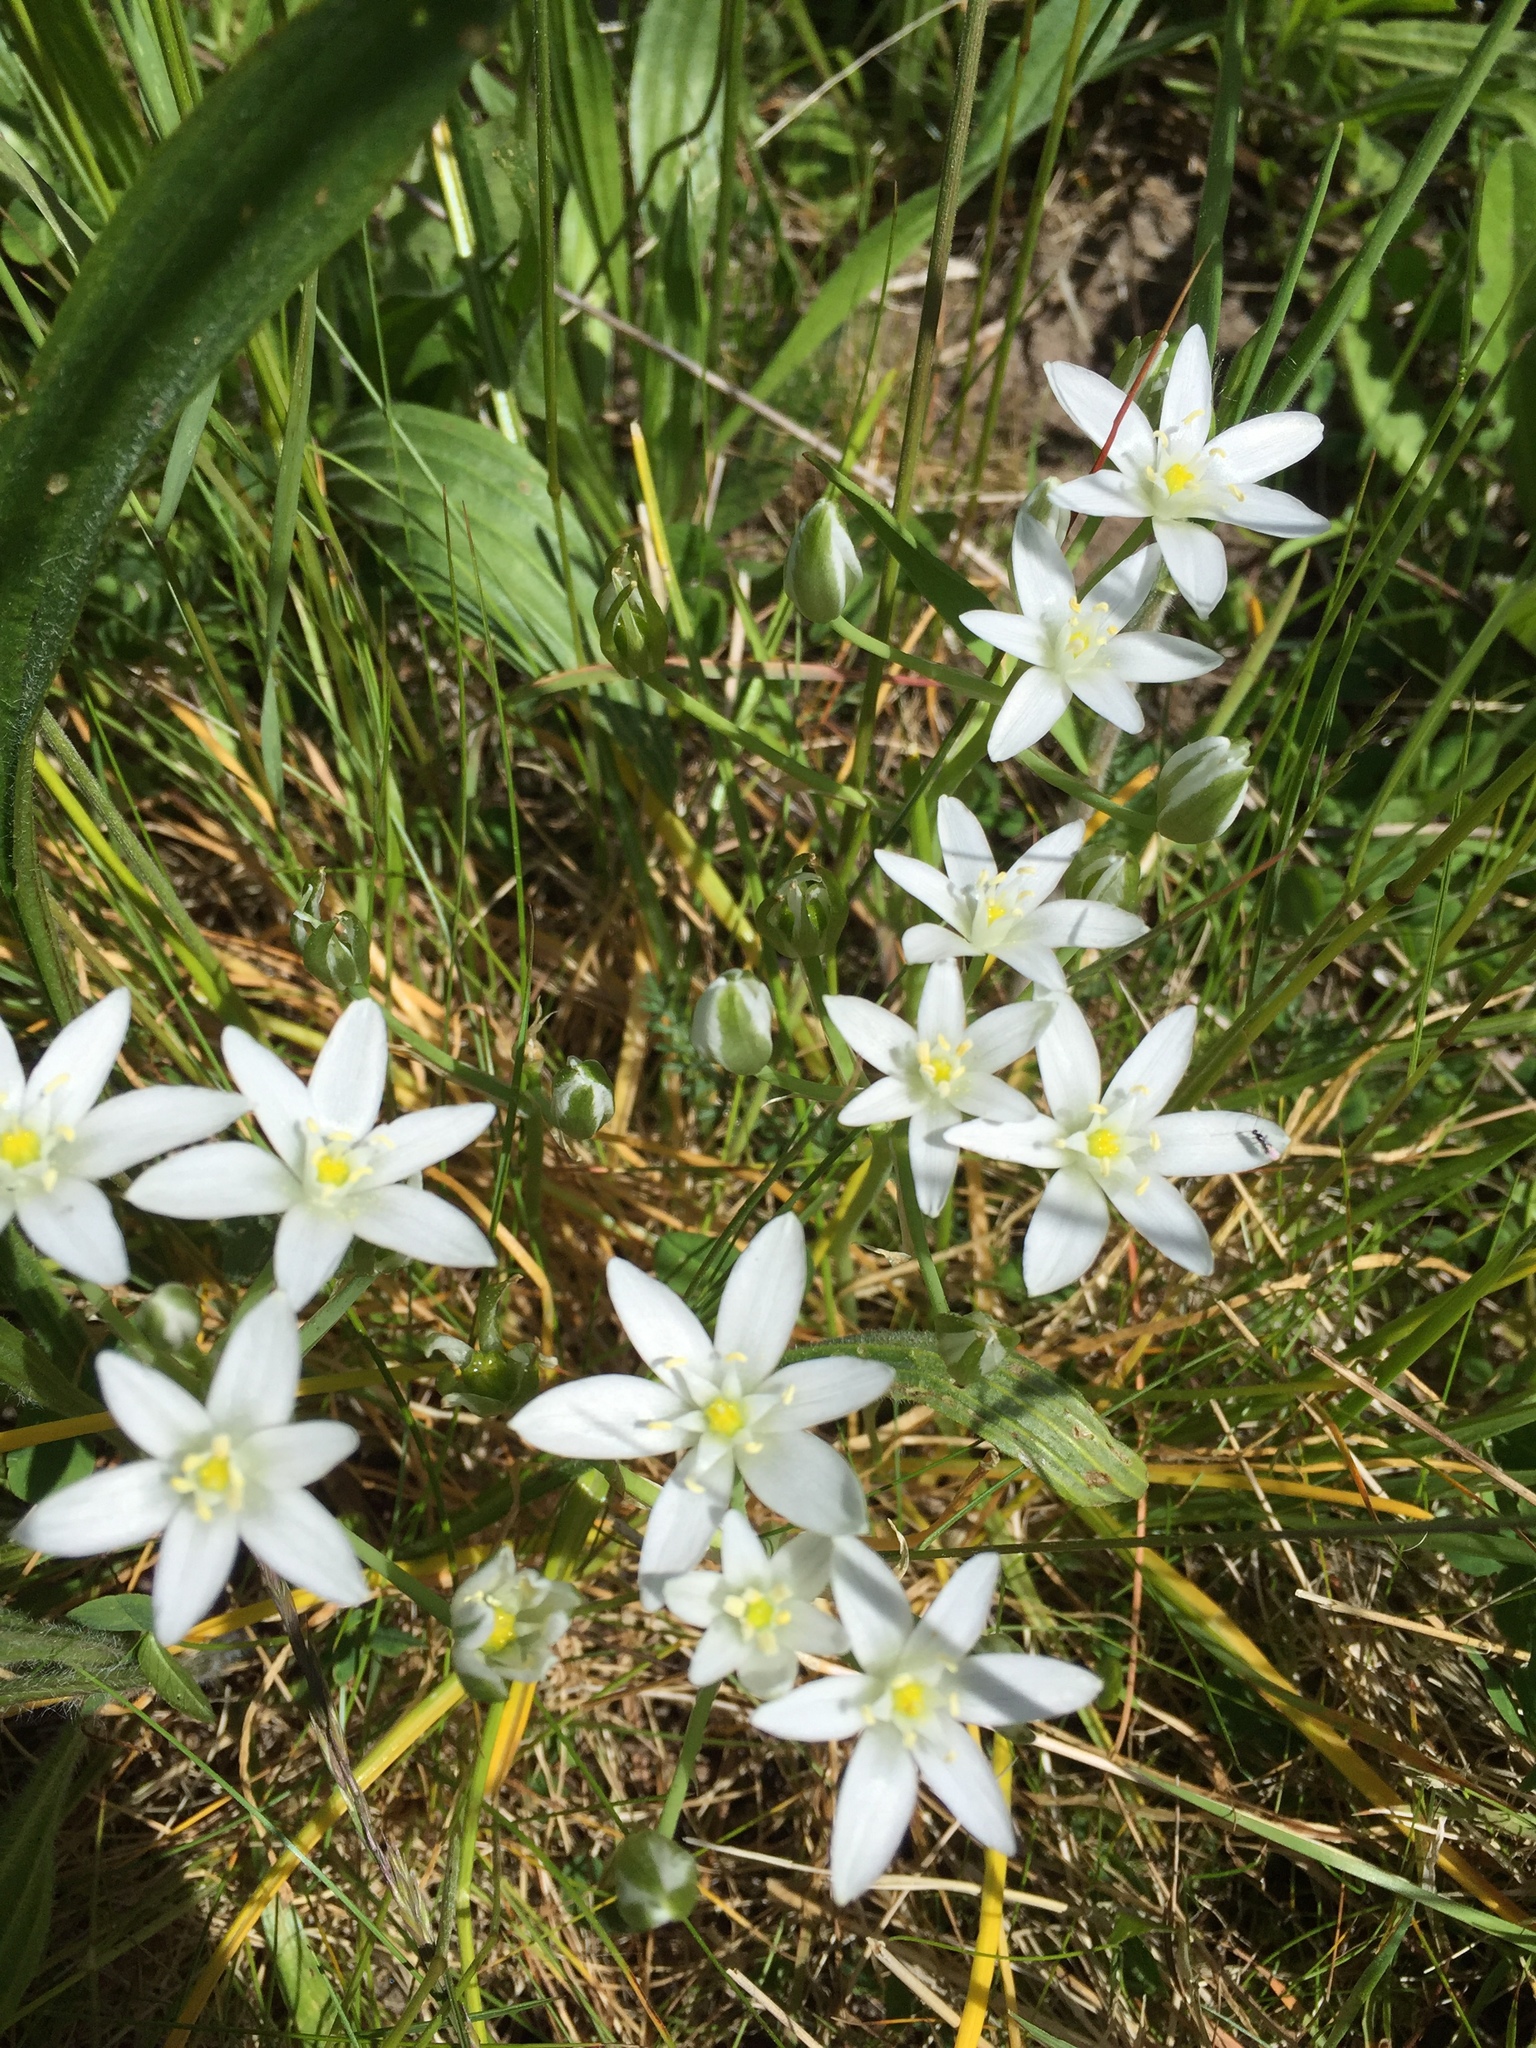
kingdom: Plantae
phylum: Tracheophyta
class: Liliopsida
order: Asparagales
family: Asparagaceae
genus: Ornithogalum
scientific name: Ornithogalum umbellatum
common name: Garden star-of-bethlehem
